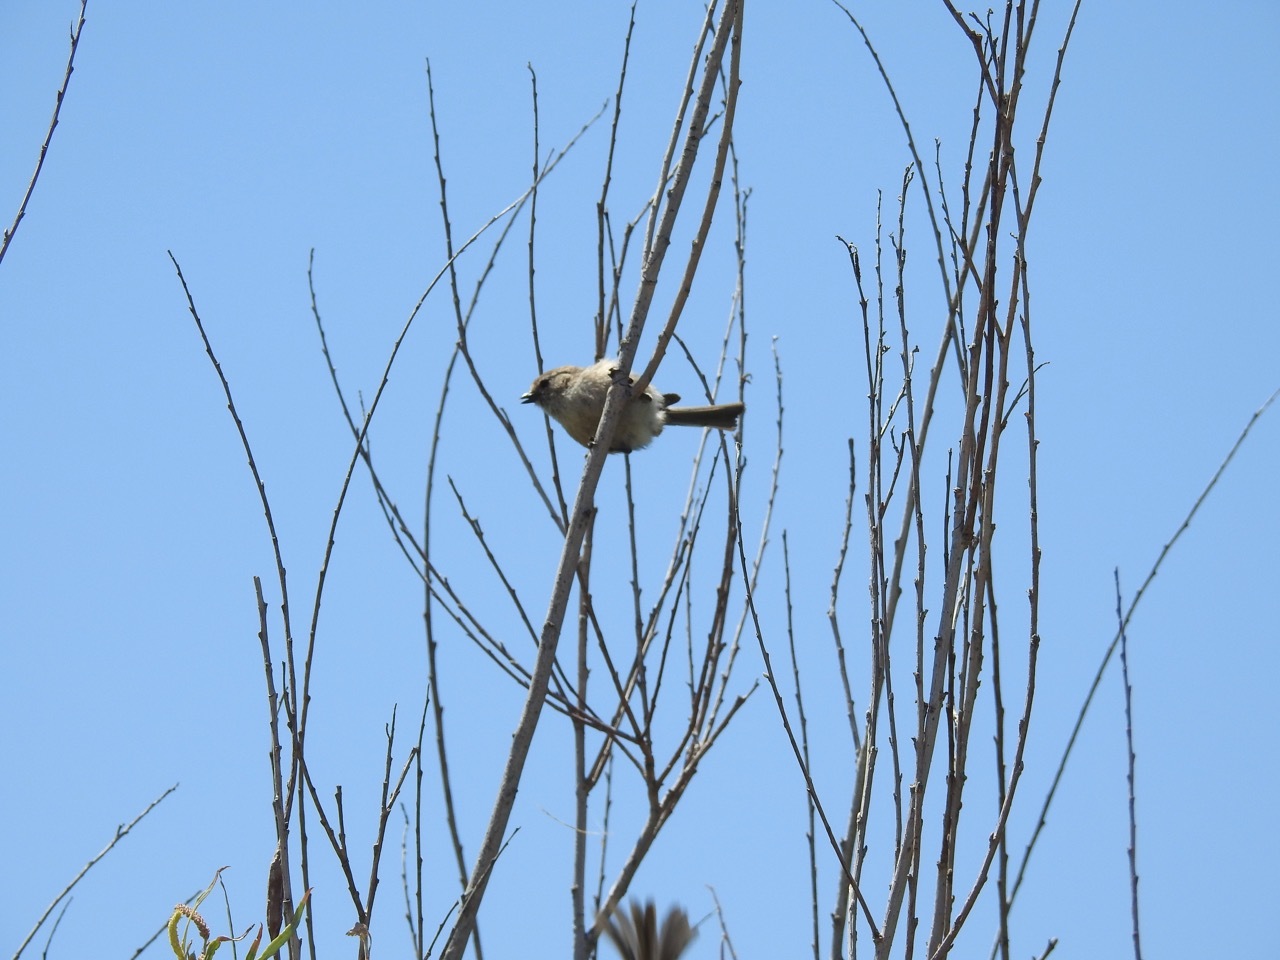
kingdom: Animalia
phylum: Chordata
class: Aves
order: Passeriformes
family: Aegithalidae
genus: Psaltriparus
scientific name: Psaltriparus minimus
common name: American bushtit
